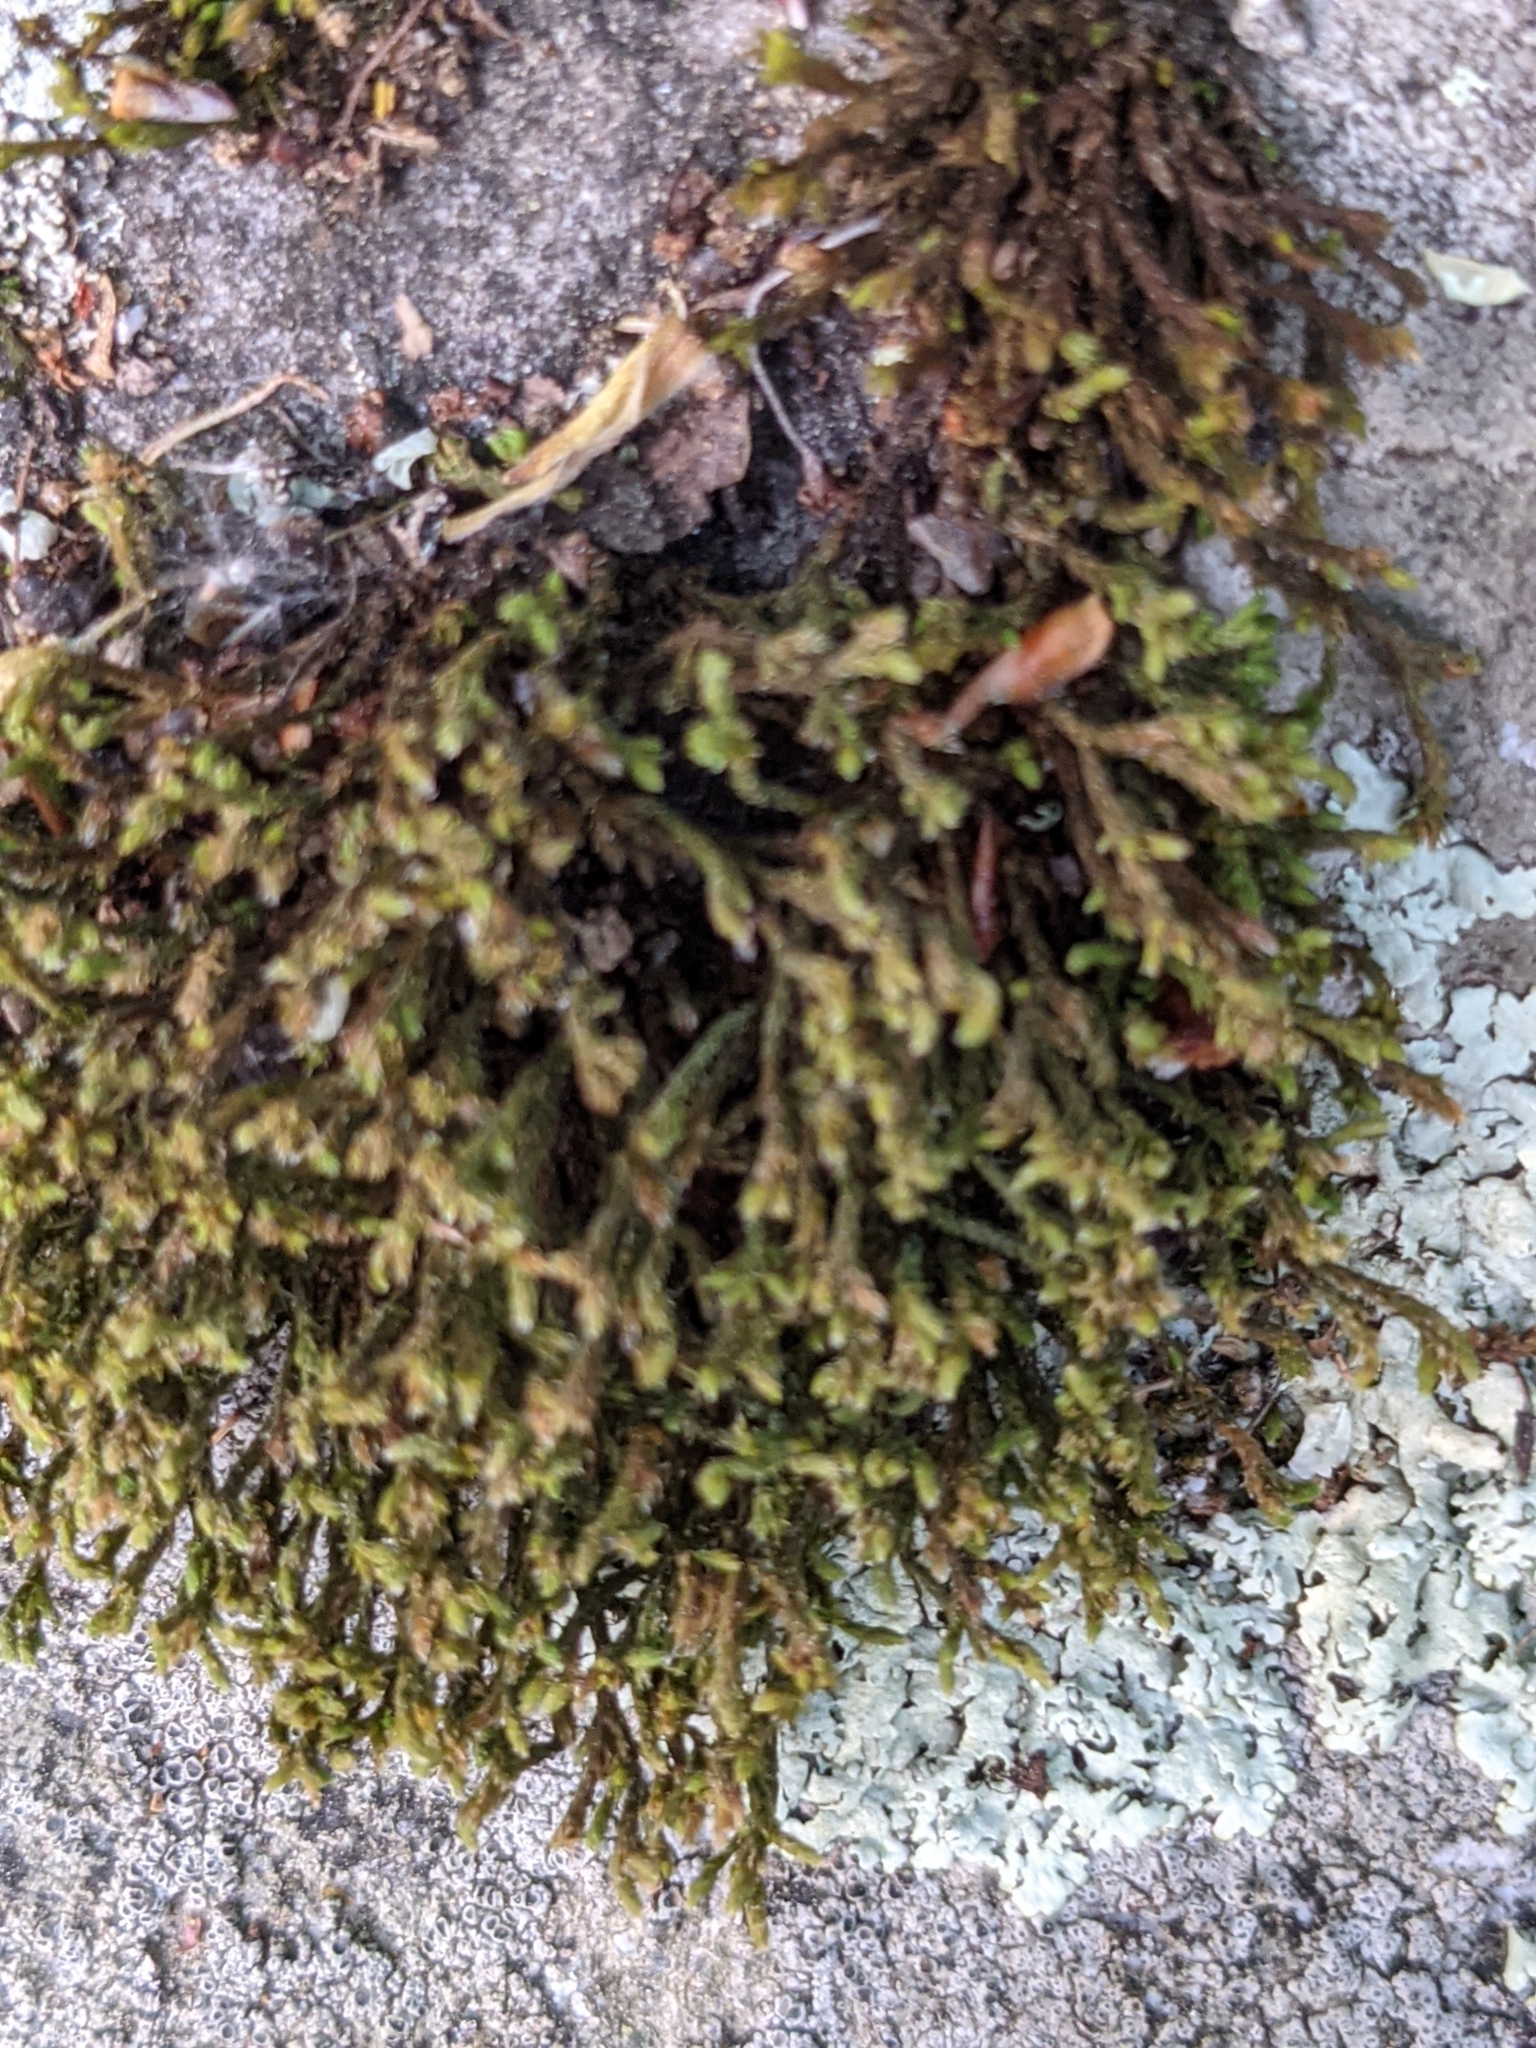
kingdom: Plantae
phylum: Bryophyta
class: Bryopsida
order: Hedwigiales
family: Hedwigiaceae
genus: Hedwigia
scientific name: Hedwigia ciliata
